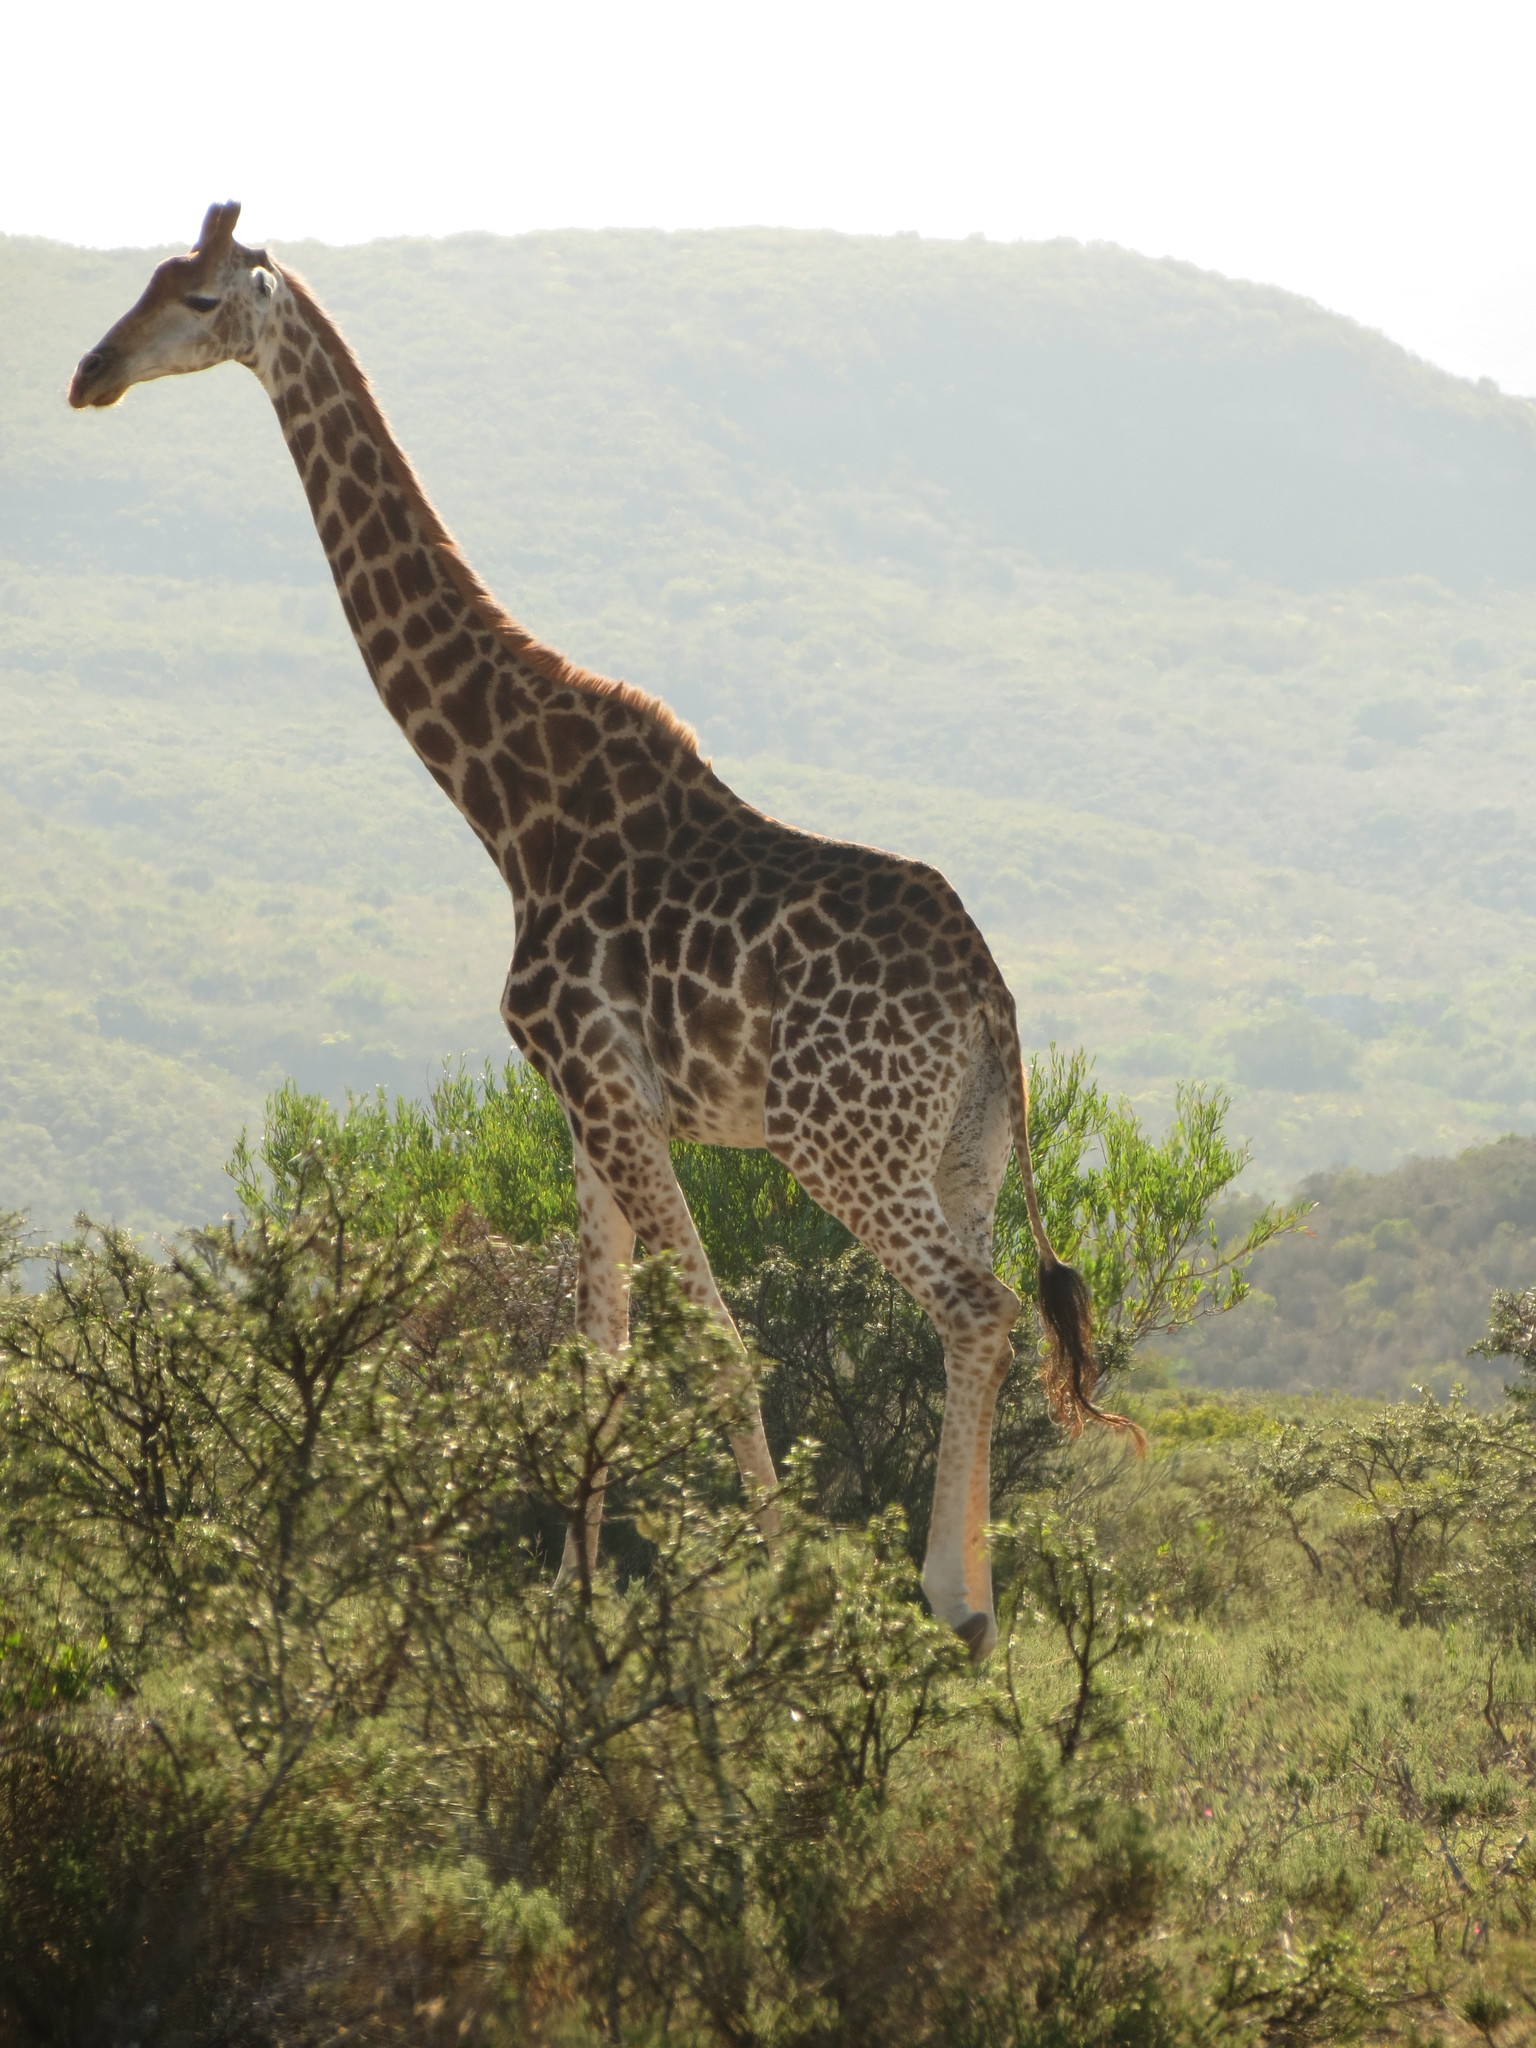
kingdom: Animalia
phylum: Chordata
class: Mammalia
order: Artiodactyla
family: Giraffidae
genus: Giraffa
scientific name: Giraffa giraffa
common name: Southern giraffe
